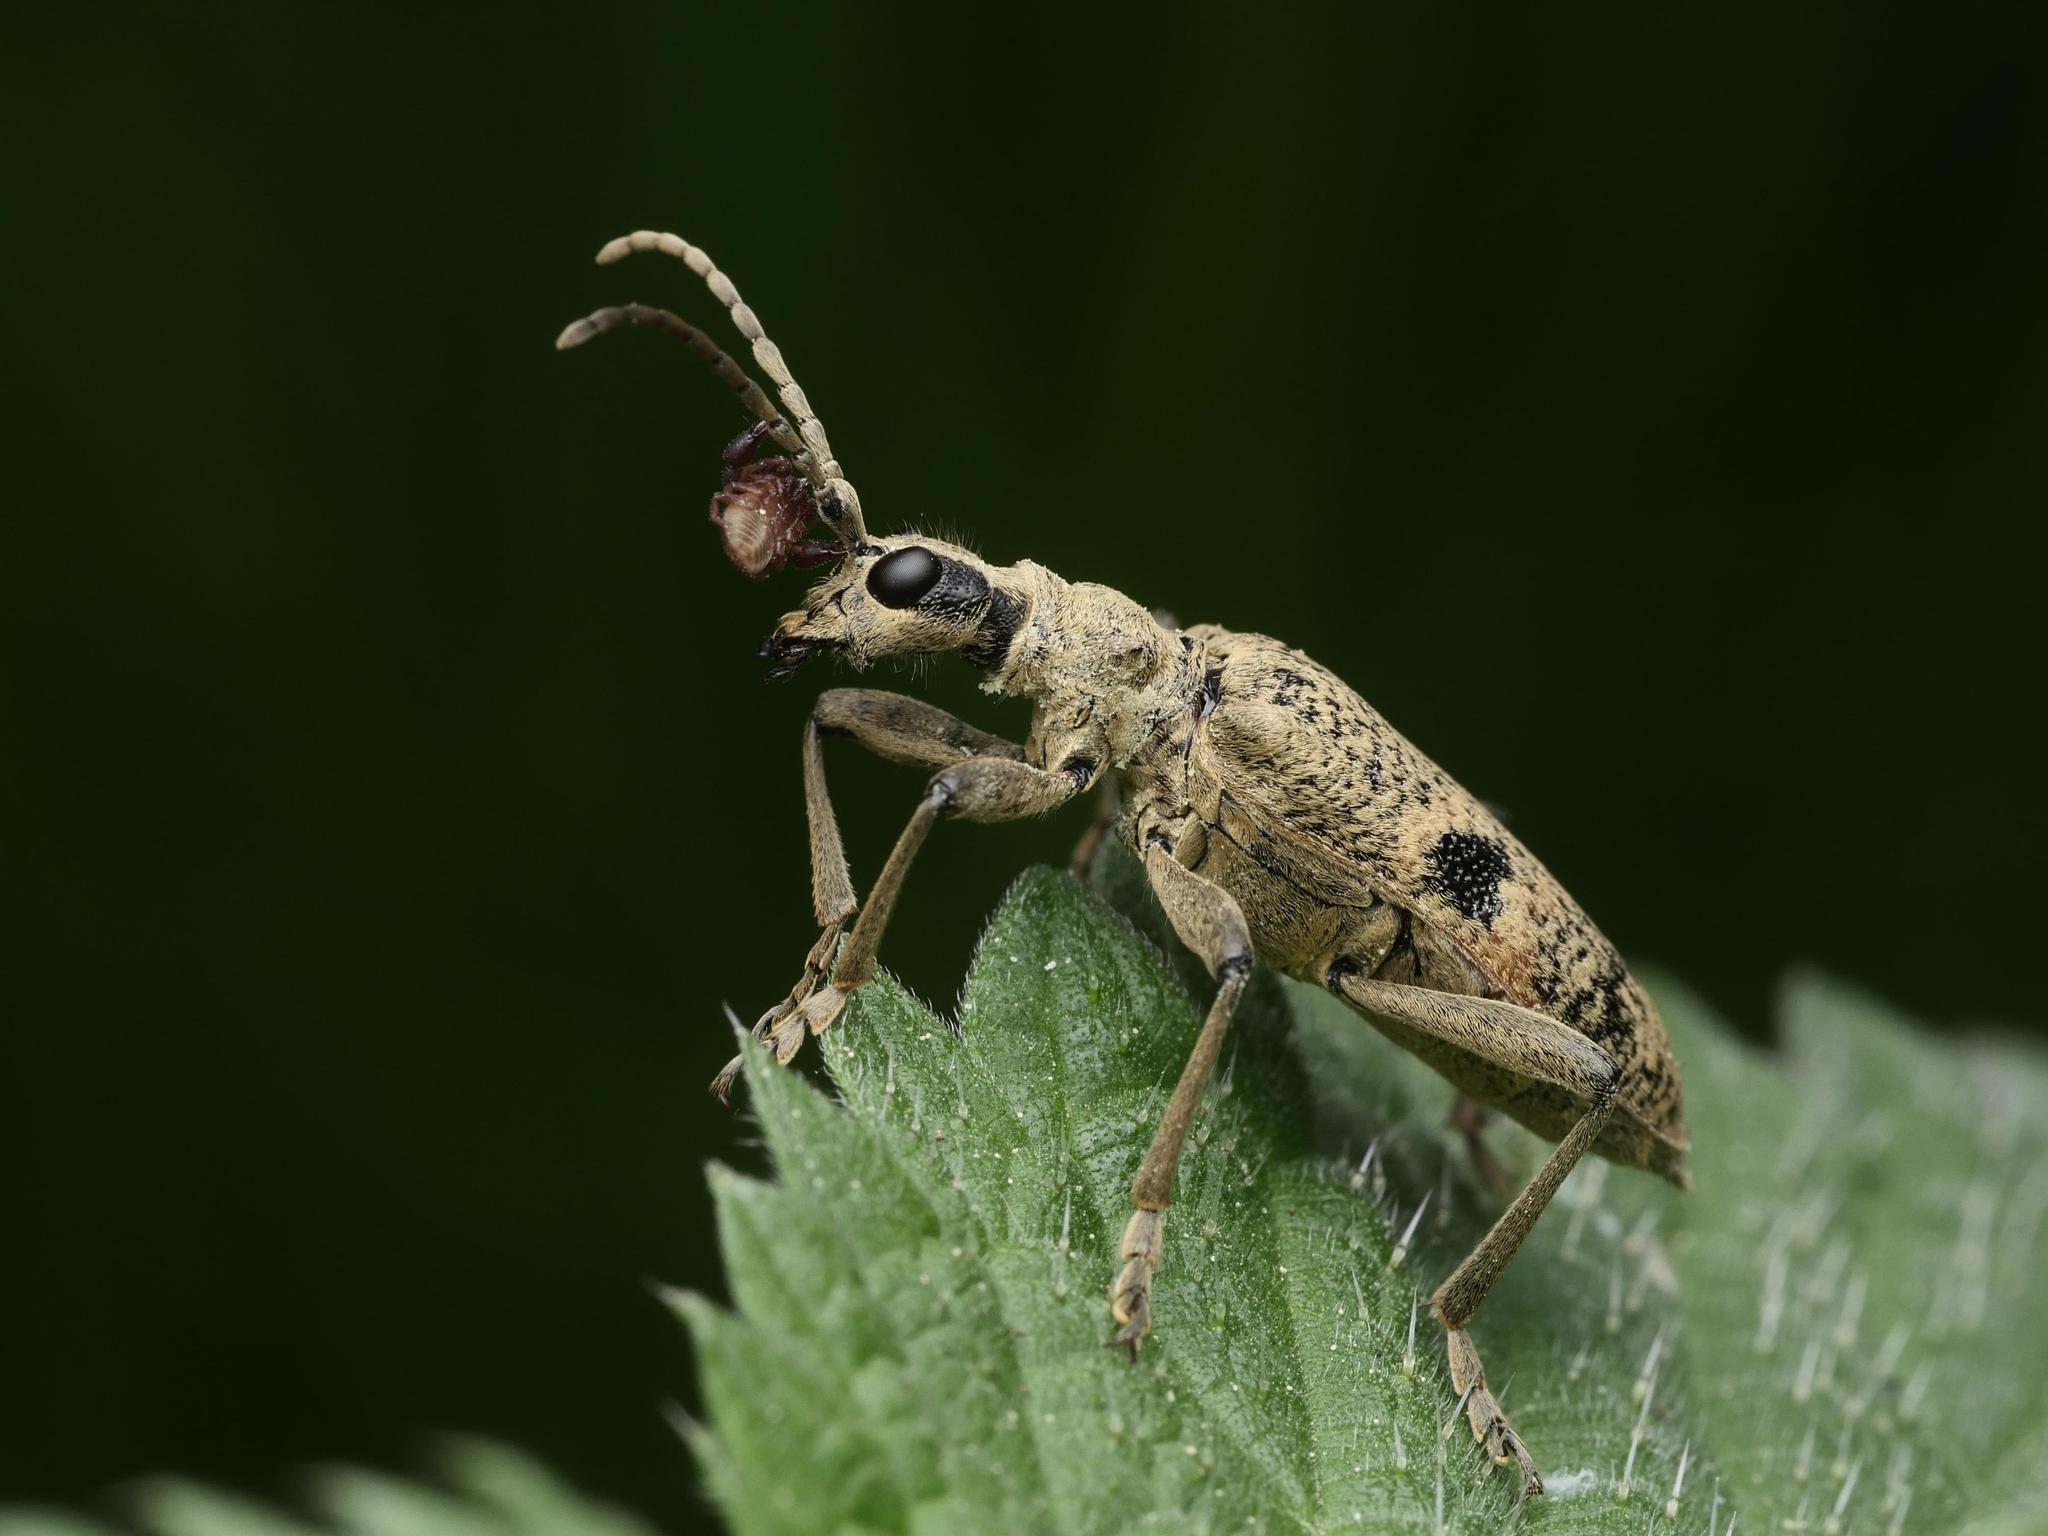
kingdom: Animalia
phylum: Arthropoda
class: Insecta
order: Coleoptera
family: Cerambycidae
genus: Rhagium
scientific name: Rhagium mordax
